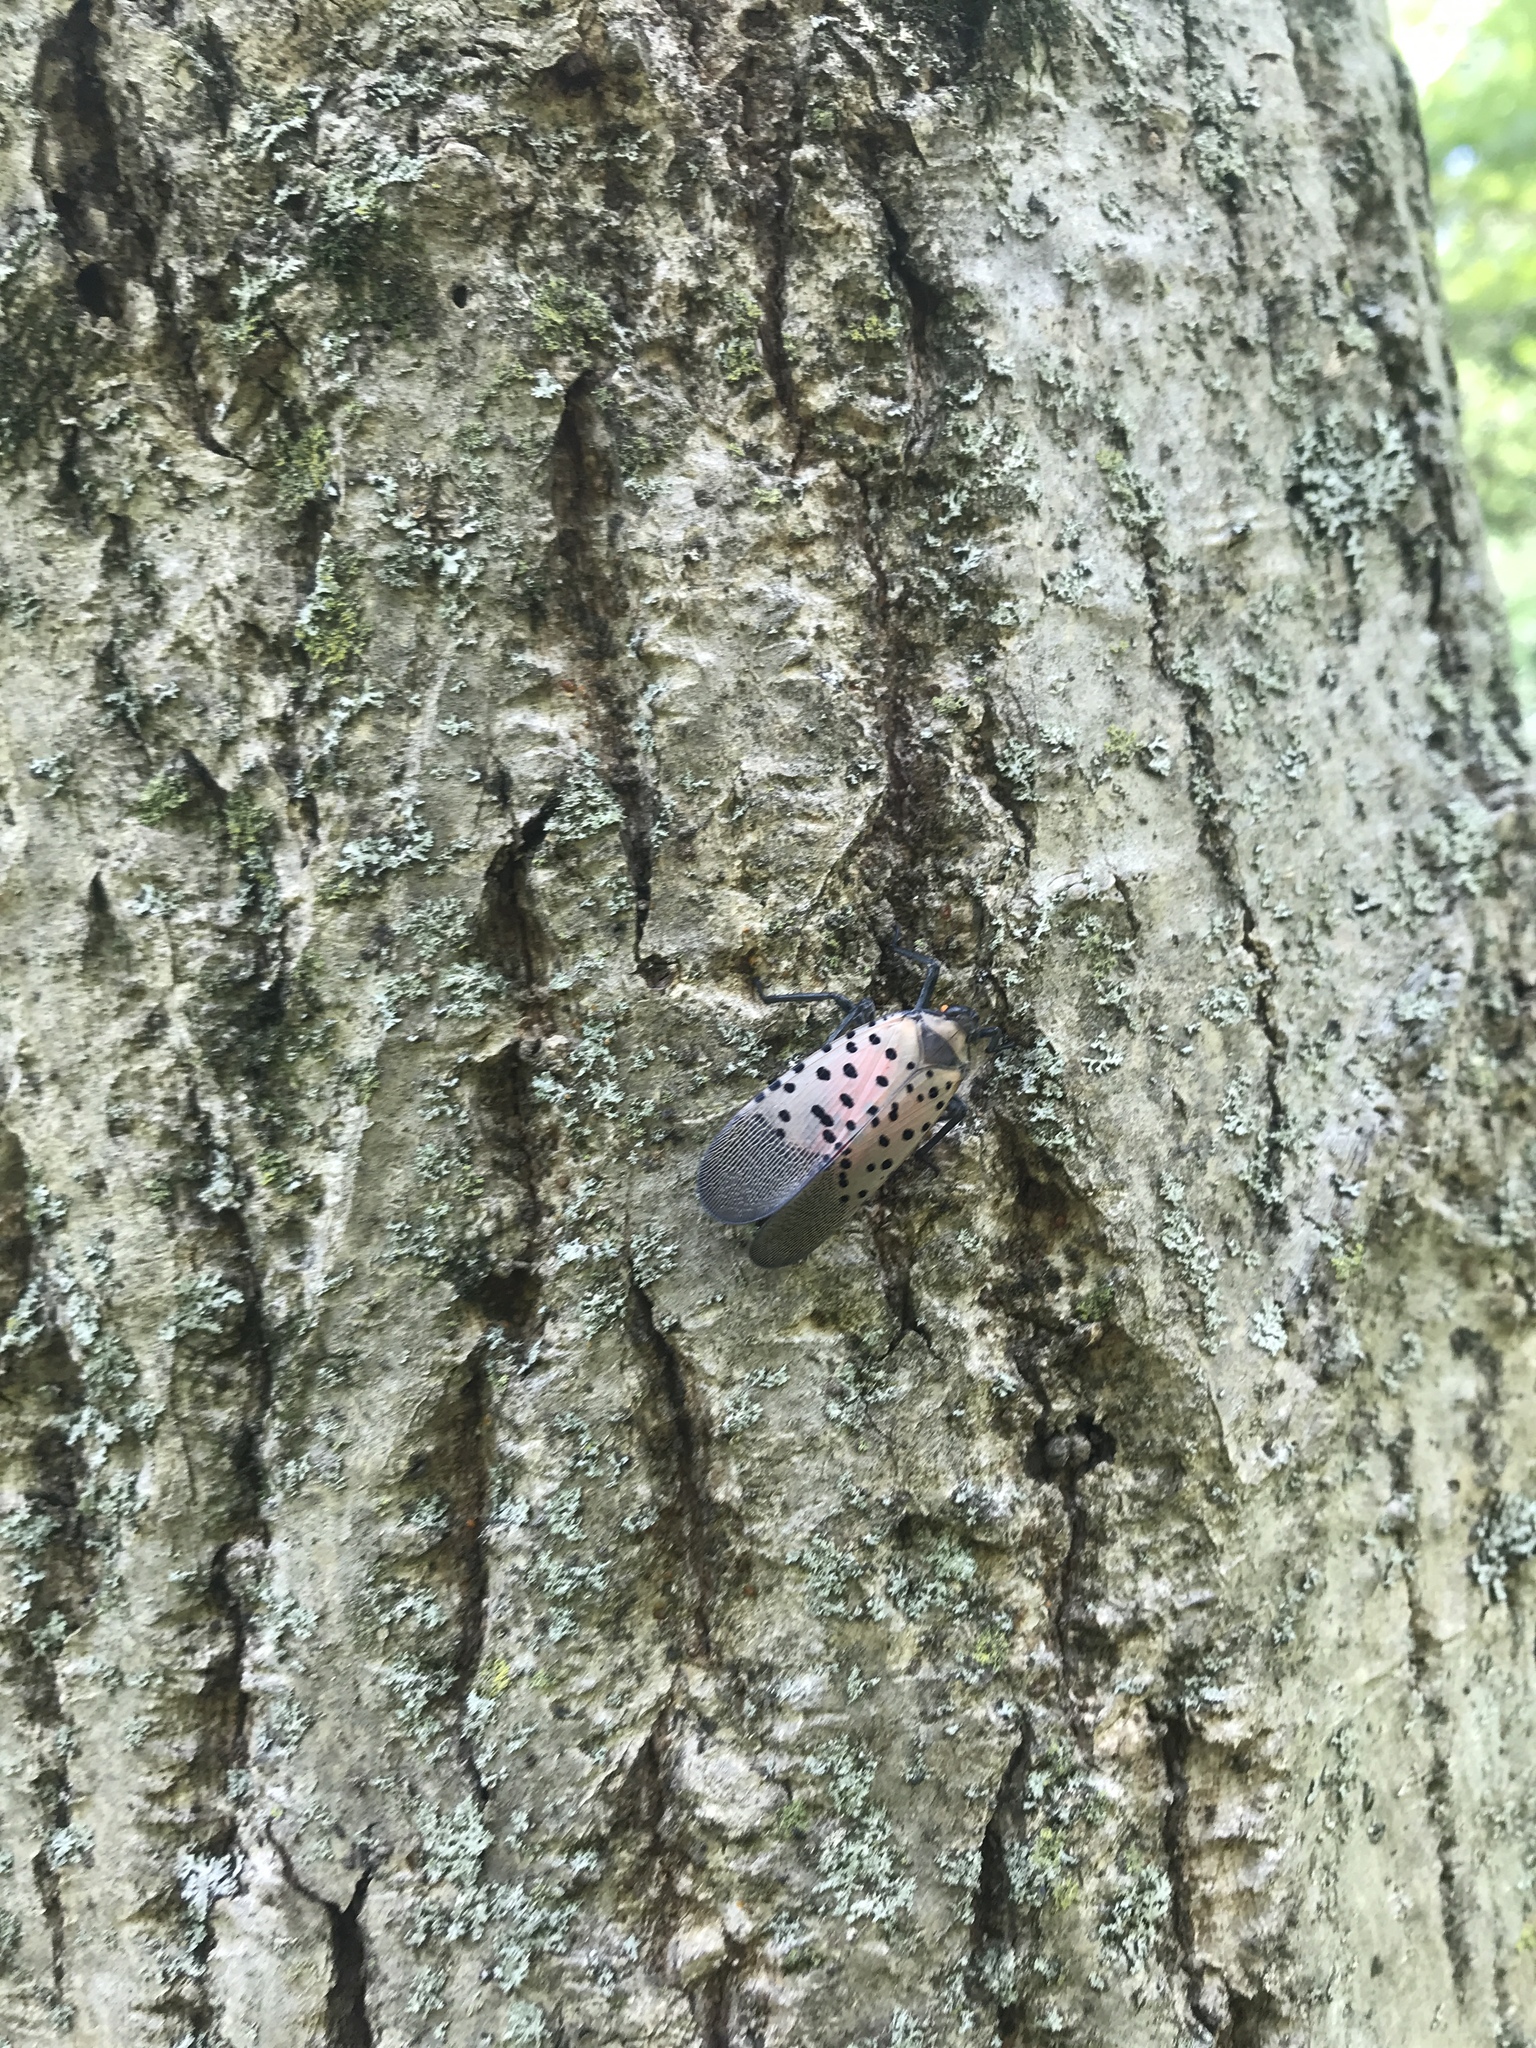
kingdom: Animalia
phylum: Arthropoda
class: Insecta
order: Hemiptera
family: Fulgoridae
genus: Lycorma
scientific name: Lycorma delicatula
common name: Spotted lanternfly
